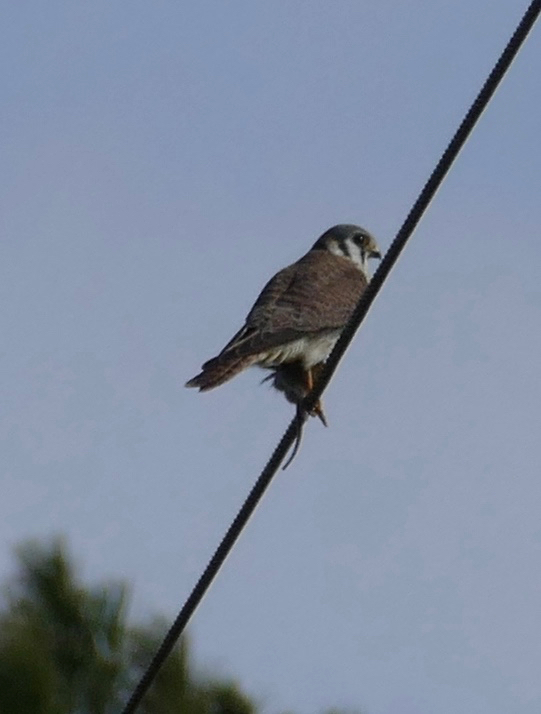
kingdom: Animalia
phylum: Chordata
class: Aves
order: Falconiformes
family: Falconidae
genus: Falco
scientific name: Falco sparverius
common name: American kestrel
